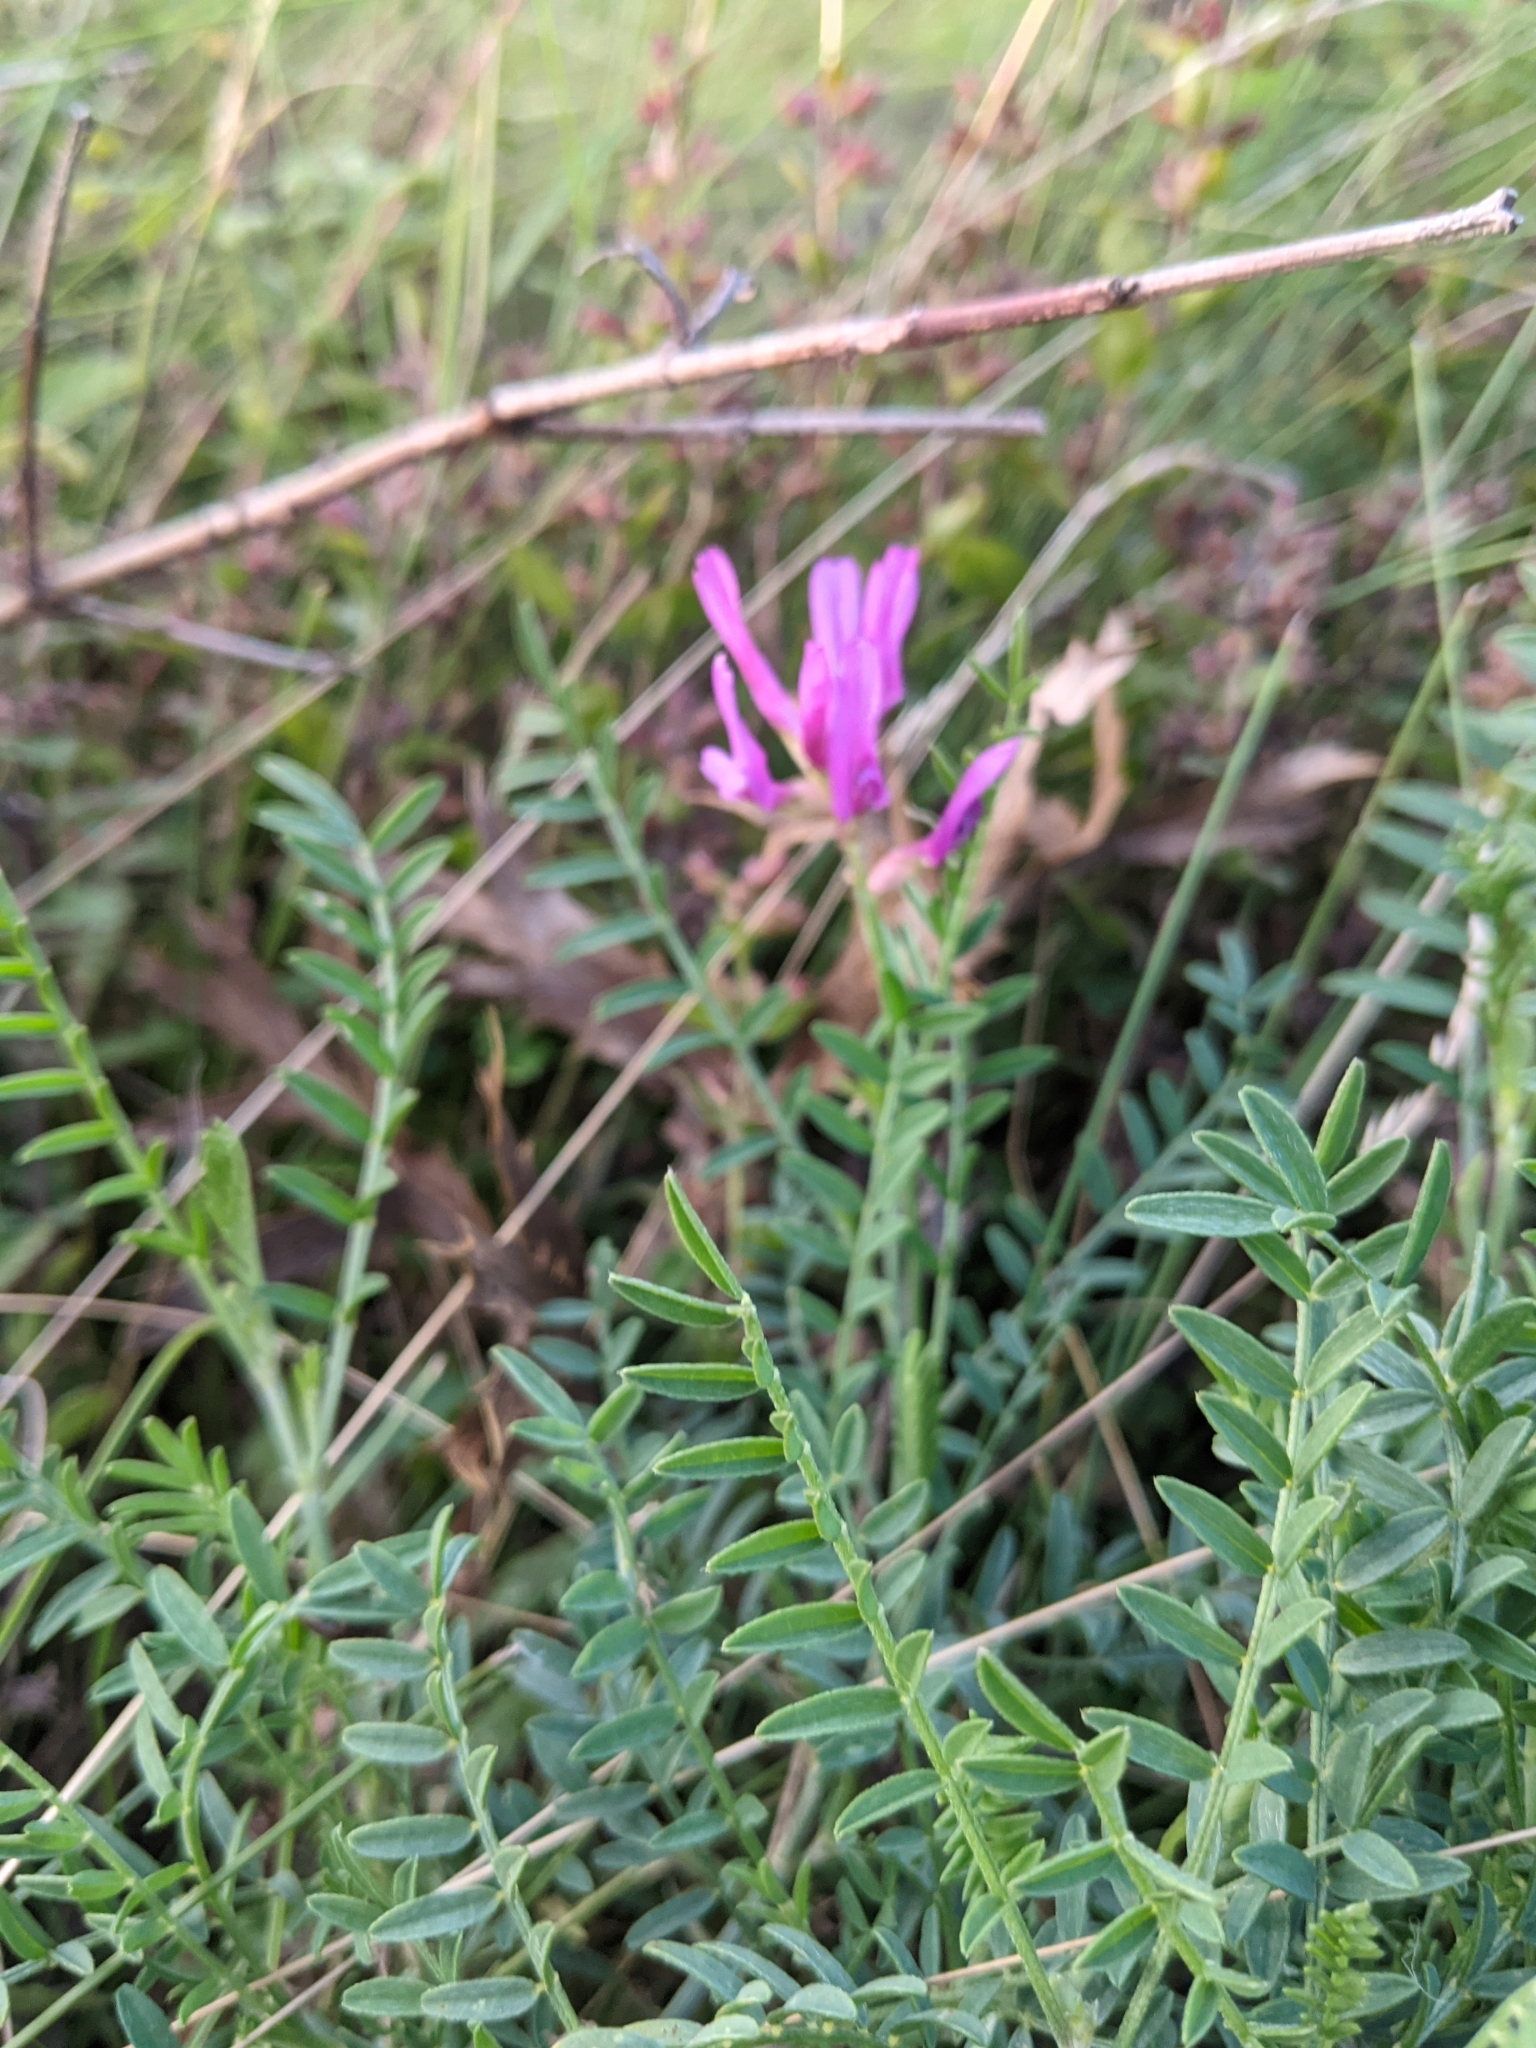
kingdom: Plantae
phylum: Tracheophyta
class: Magnoliopsida
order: Fabales
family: Fabaceae
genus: Astragalus
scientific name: Astragalus onobrychis
